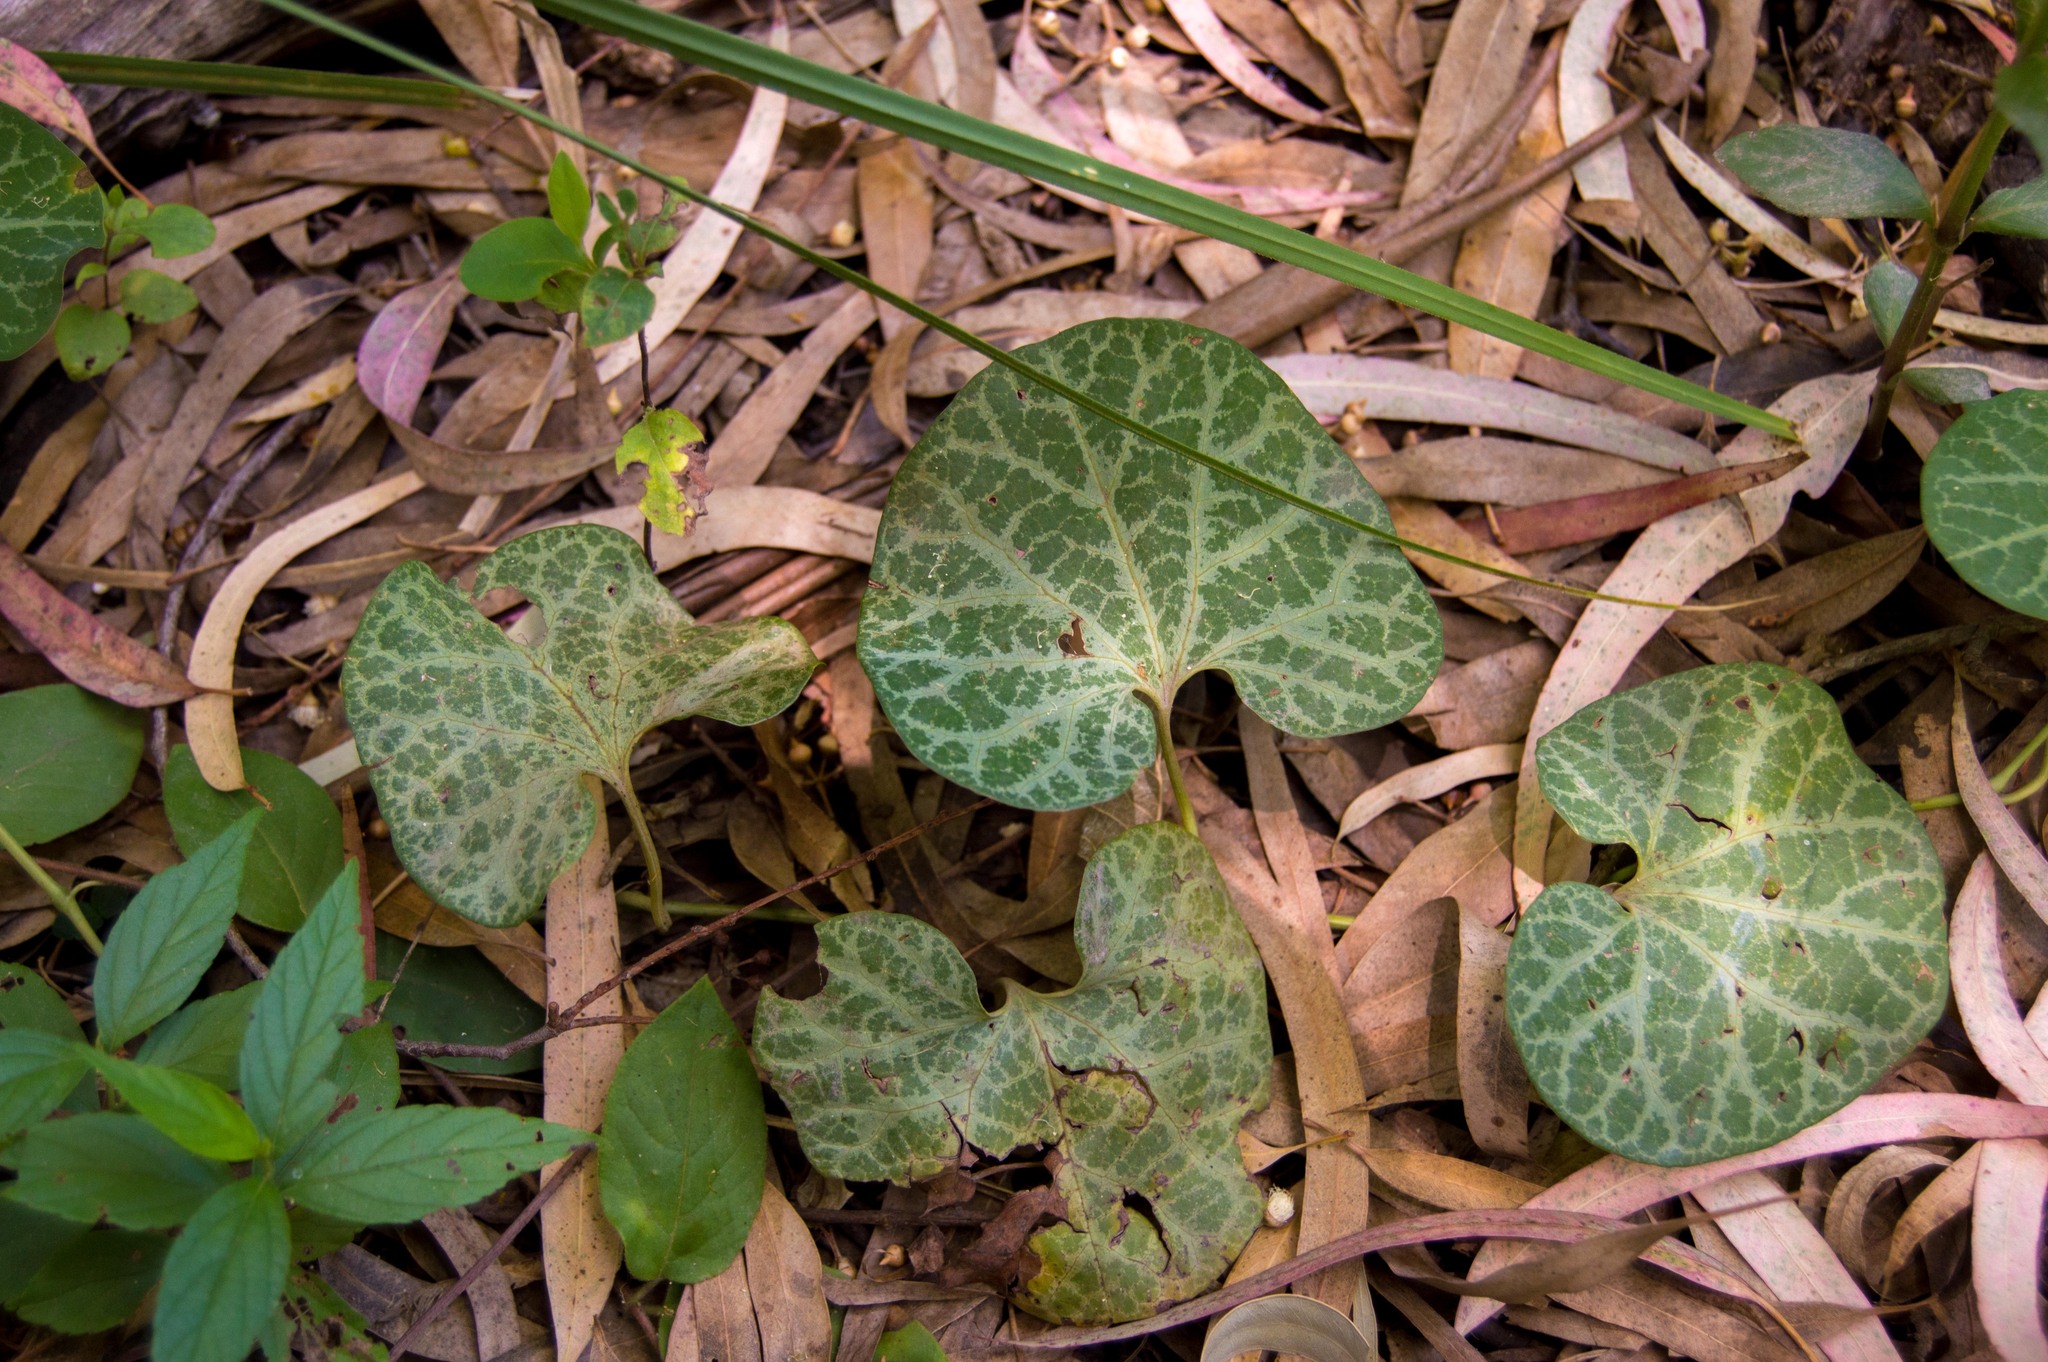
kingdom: Plantae
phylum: Tracheophyta
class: Magnoliopsida
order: Piperales
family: Aristolochiaceae
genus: Aristolochia
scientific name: Aristolochia fimbriata
